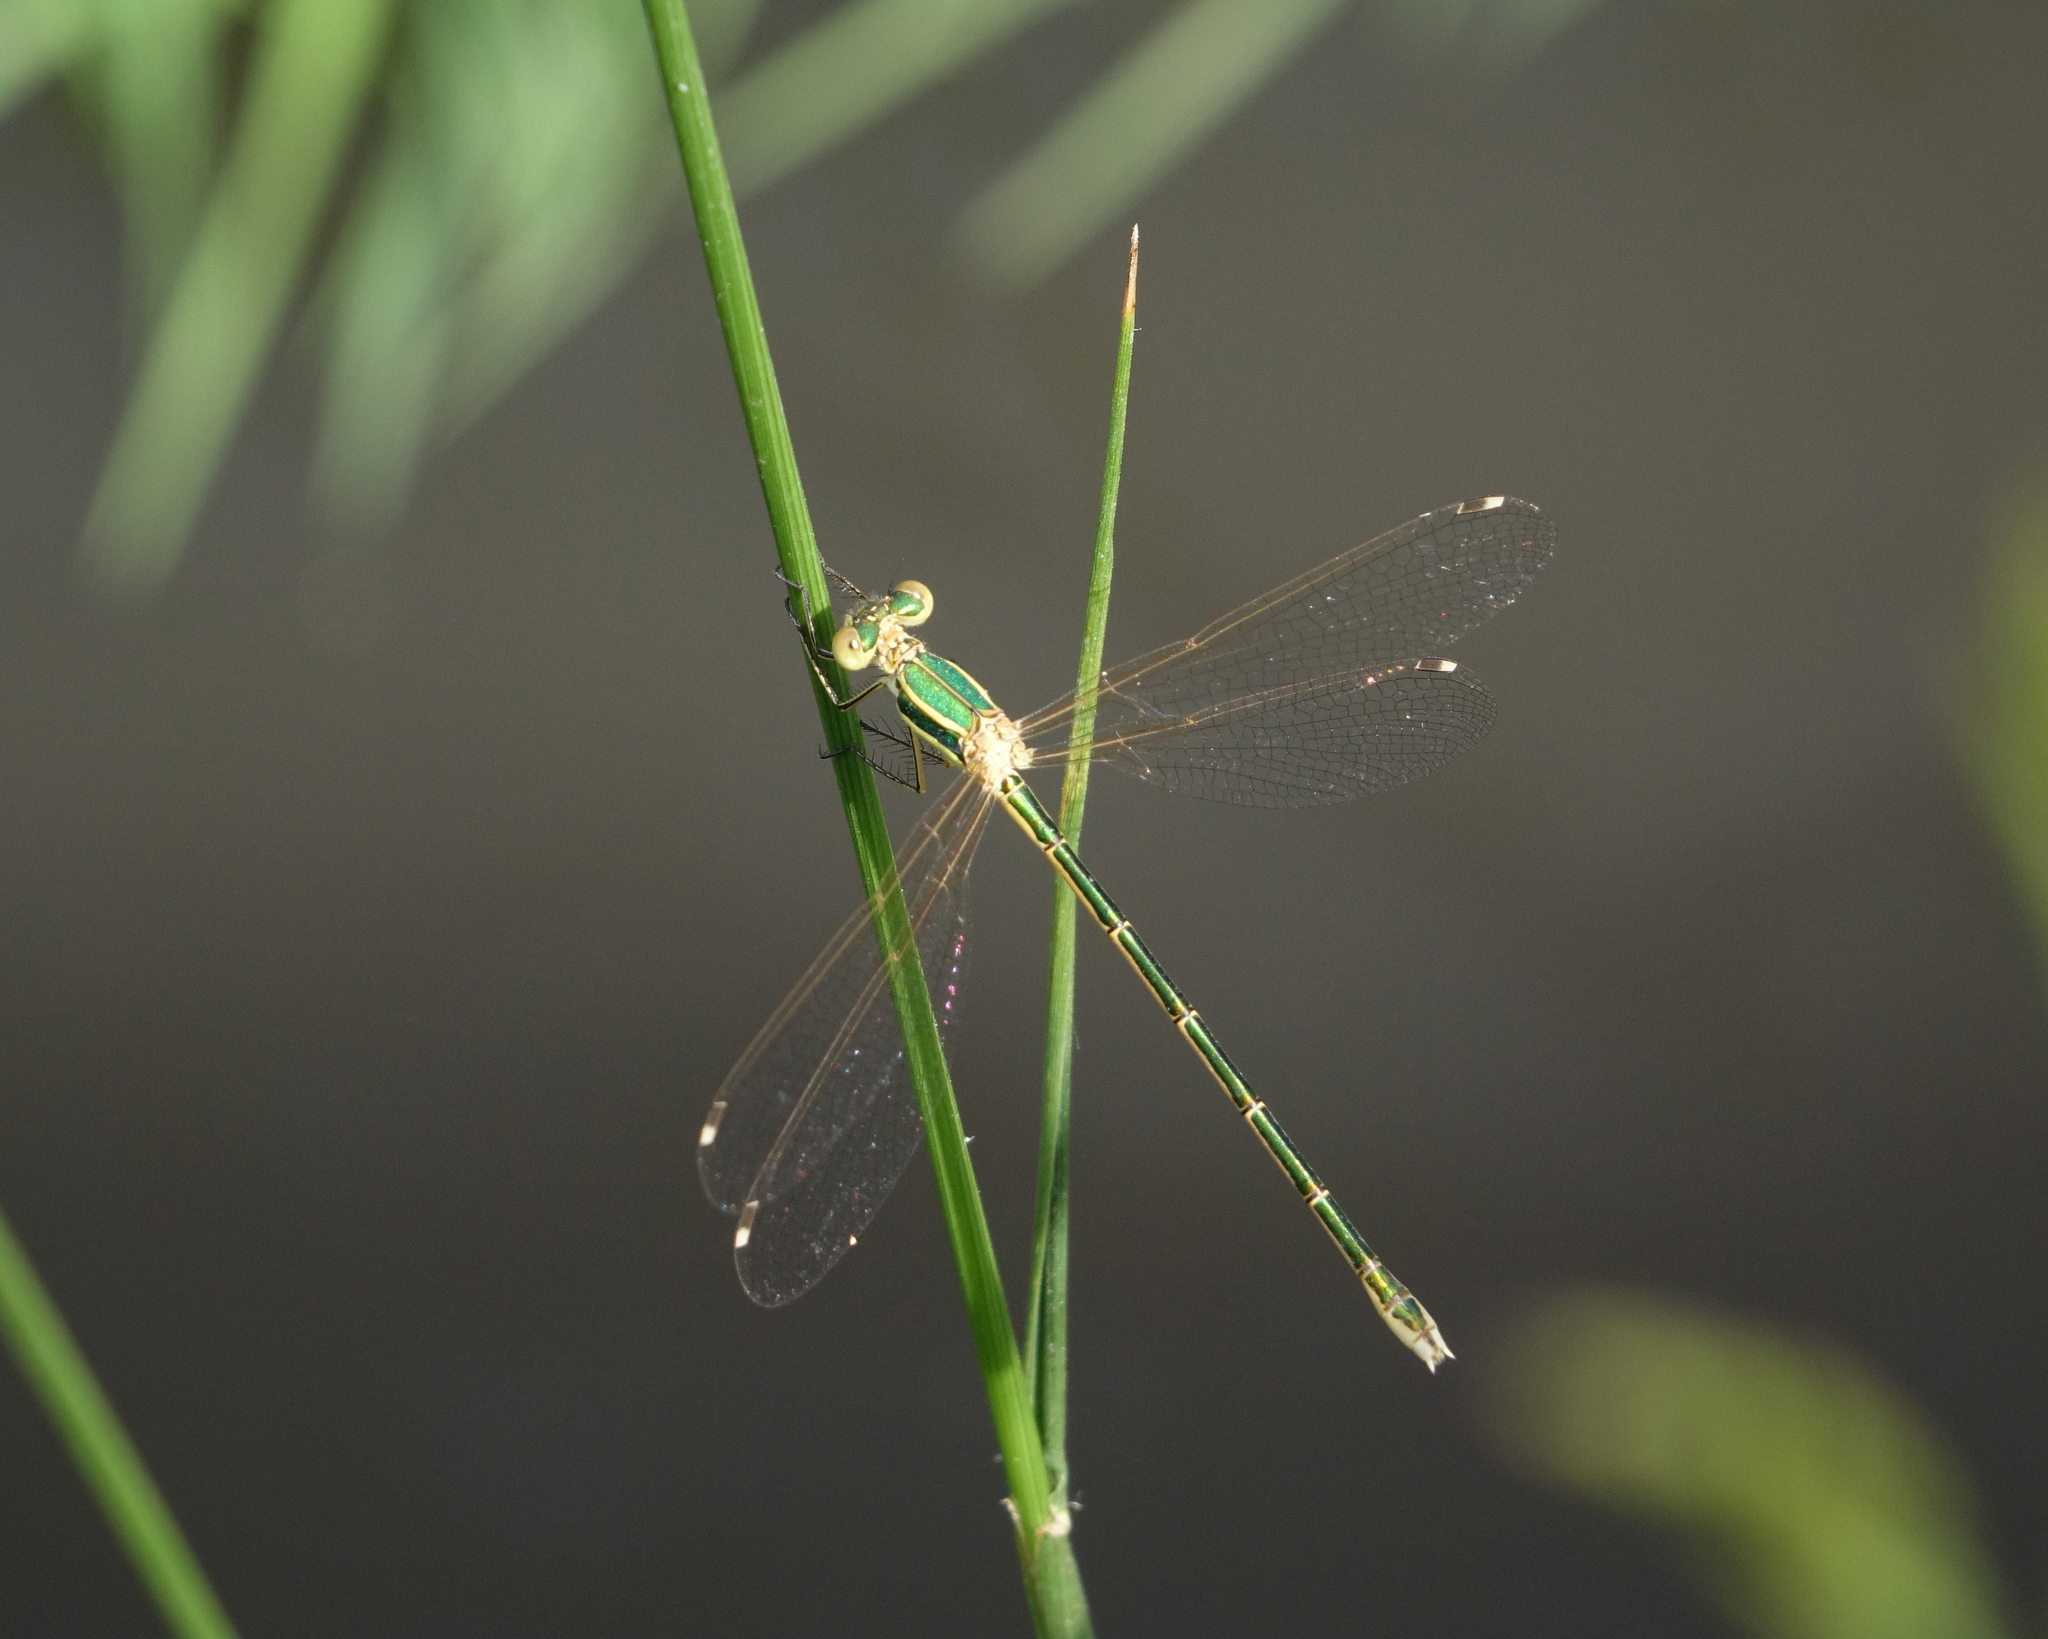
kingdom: Animalia
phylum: Arthropoda
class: Insecta
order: Odonata
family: Lestidae
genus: Lestes
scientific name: Lestes barbarus
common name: Migrant spreadwing
